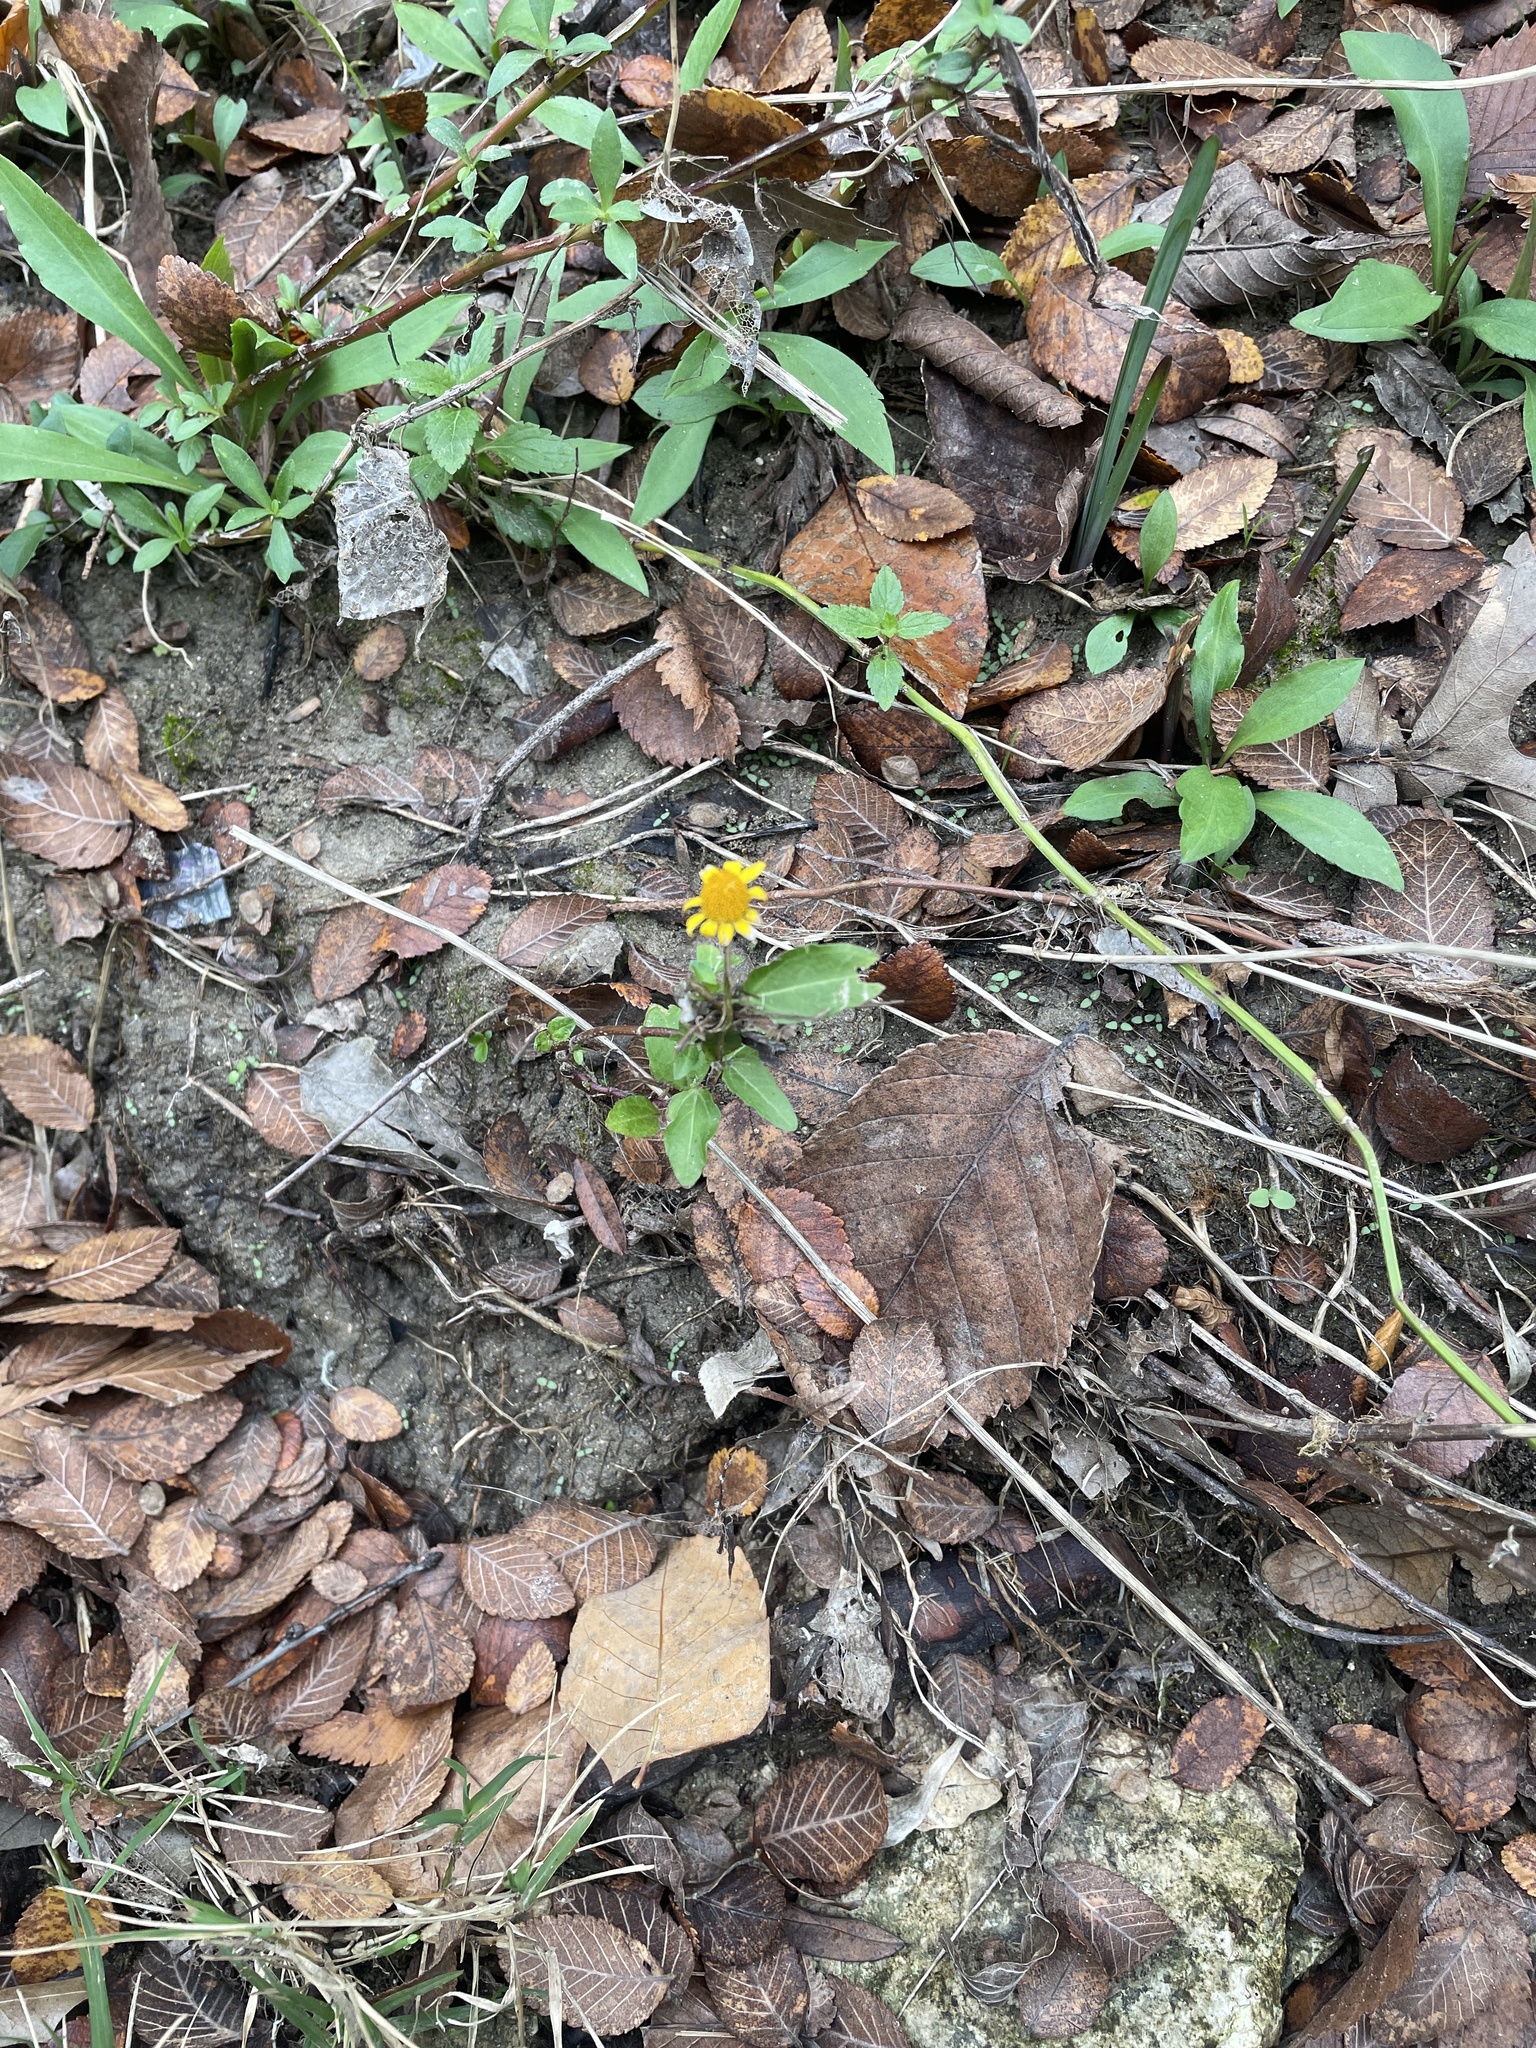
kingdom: Plantae
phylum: Tracheophyta
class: Magnoliopsida
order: Asterales
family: Asteraceae
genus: Acmella
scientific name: Acmella repens
